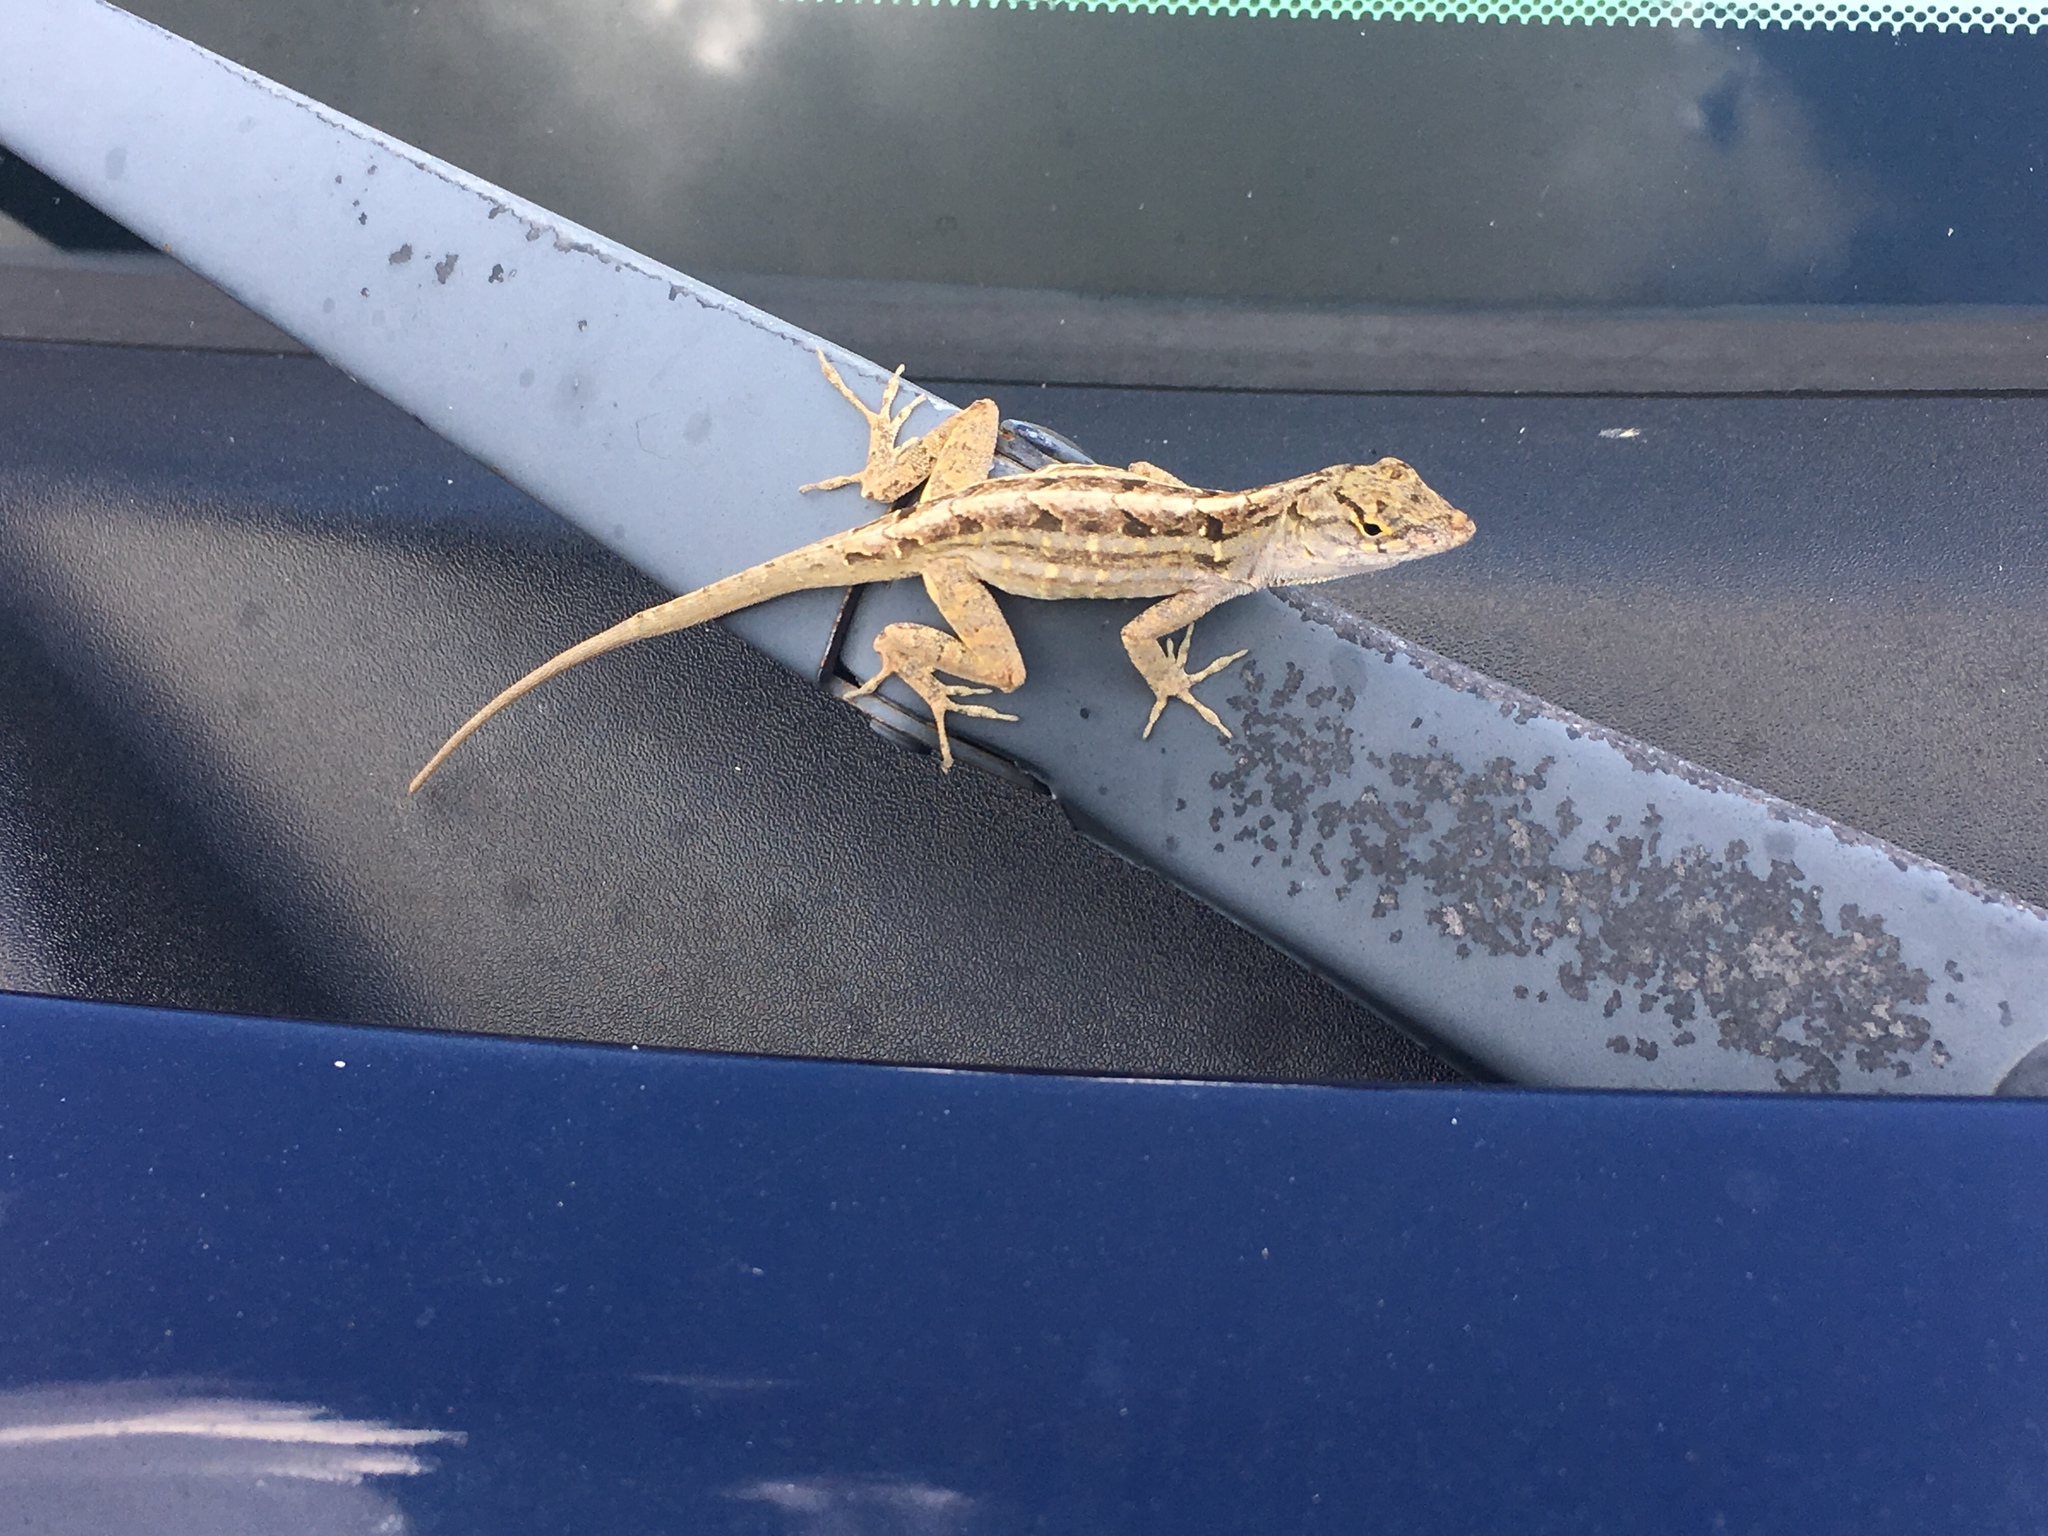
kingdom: Animalia
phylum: Chordata
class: Squamata
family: Dactyloidae
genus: Anolis
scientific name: Anolis sagrei
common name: Brown anole
